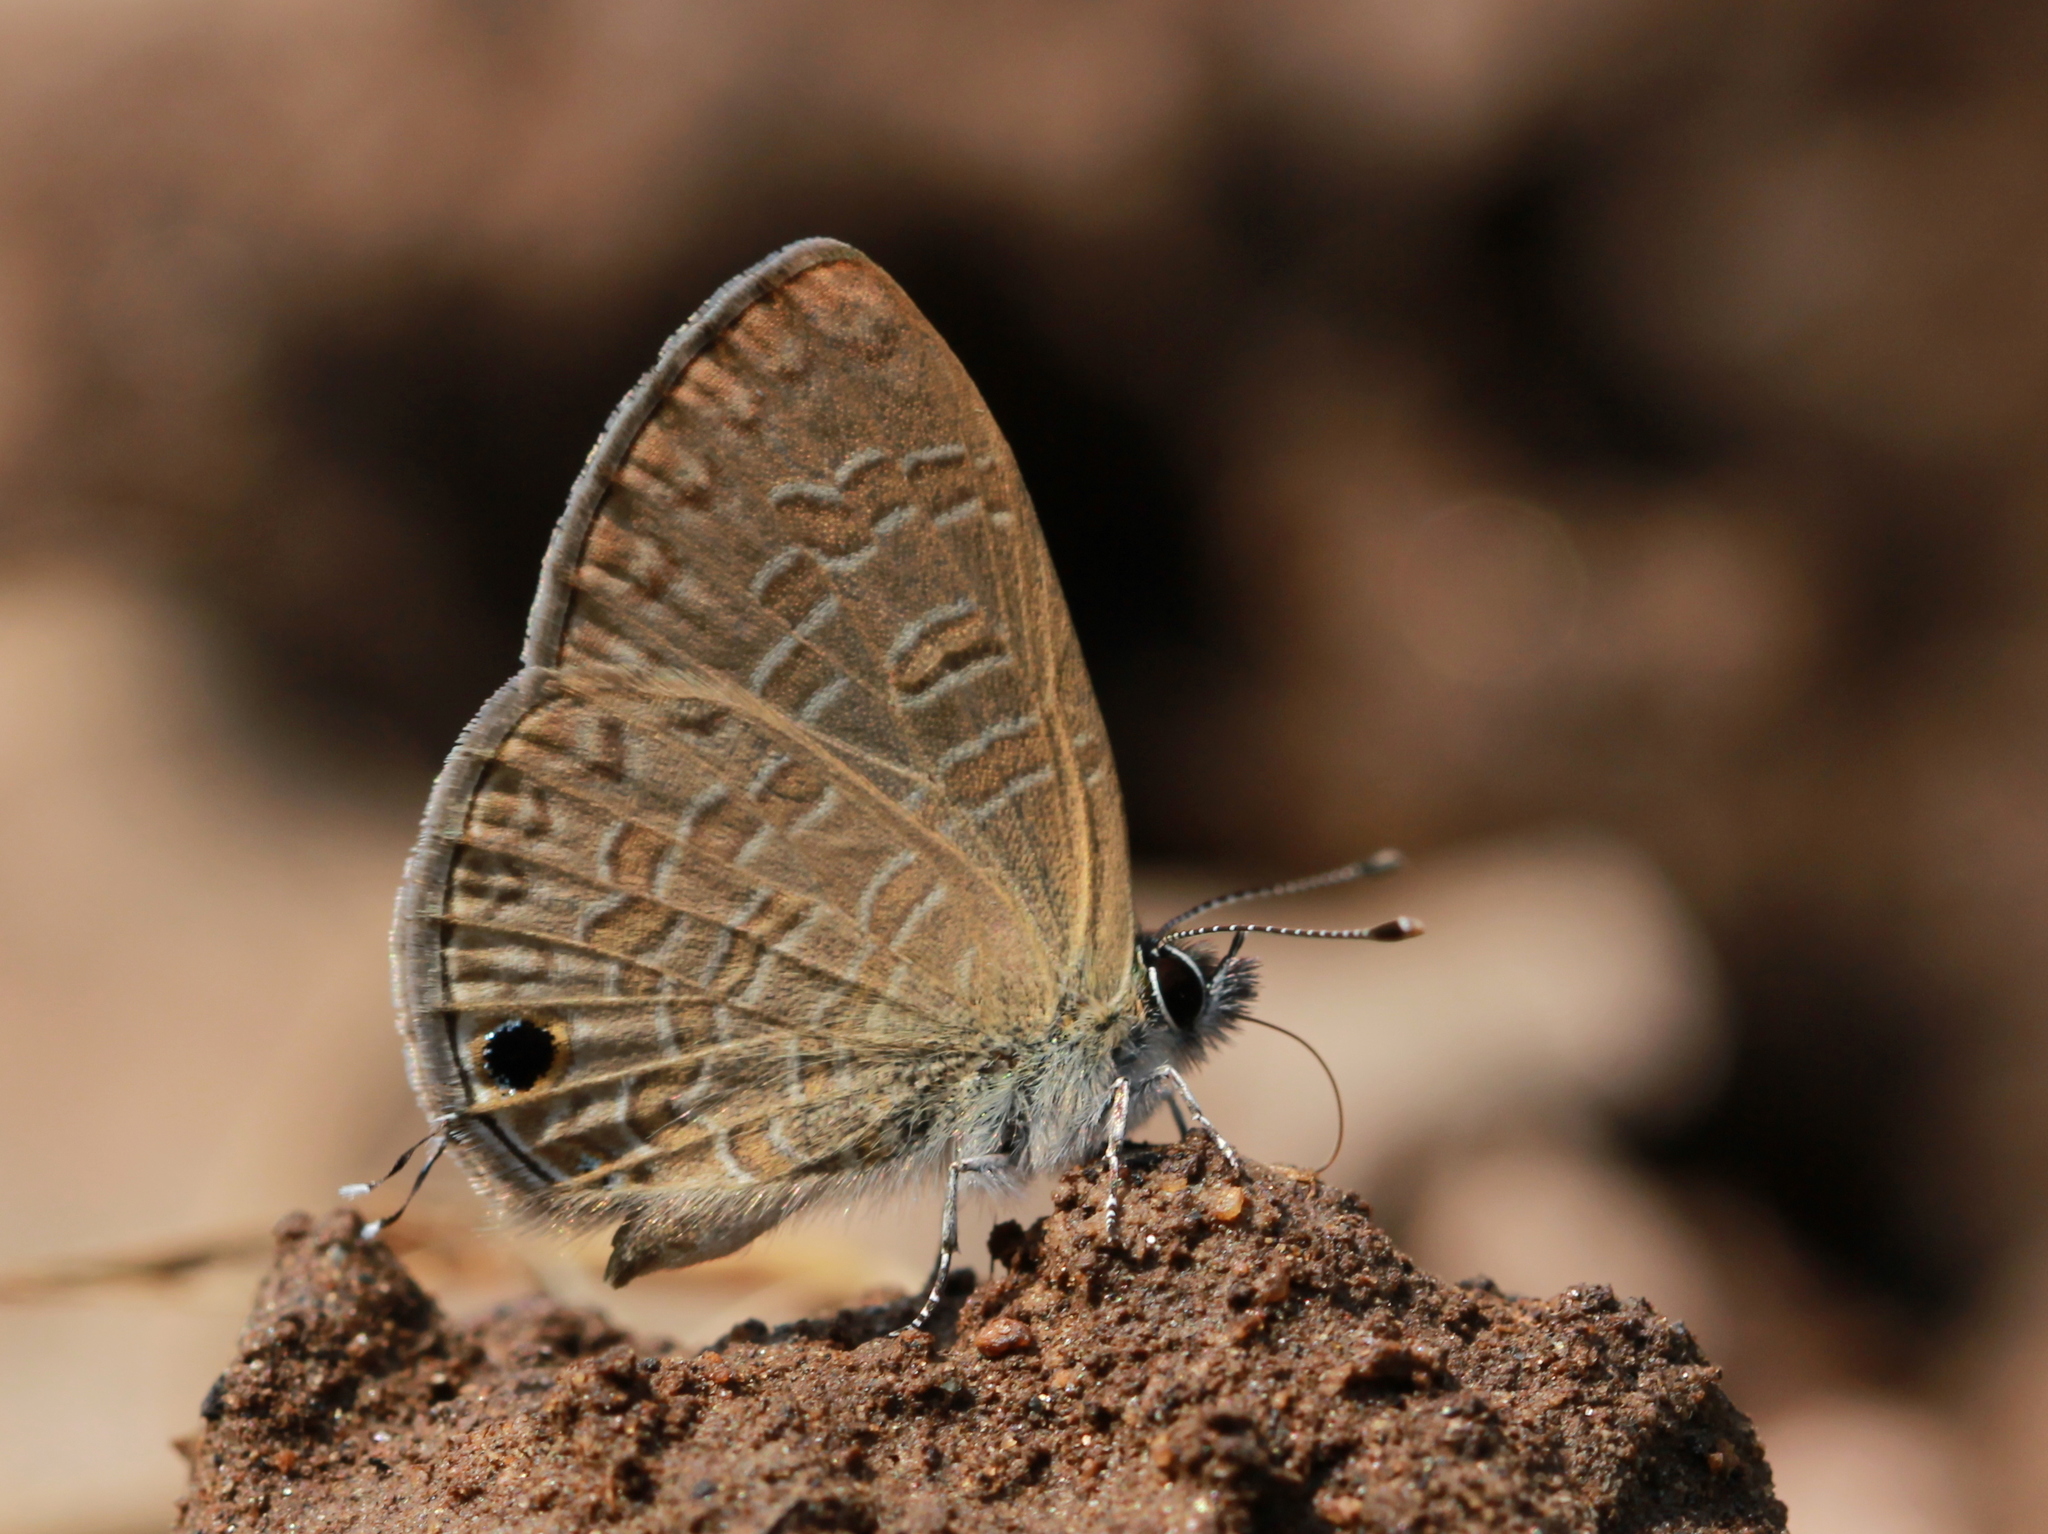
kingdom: Animalia
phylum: Arthropoda
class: Insecta
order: Lepidoptera
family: Lycaenidae
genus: Prosotas
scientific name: Prosotas nora
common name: Common line blue
